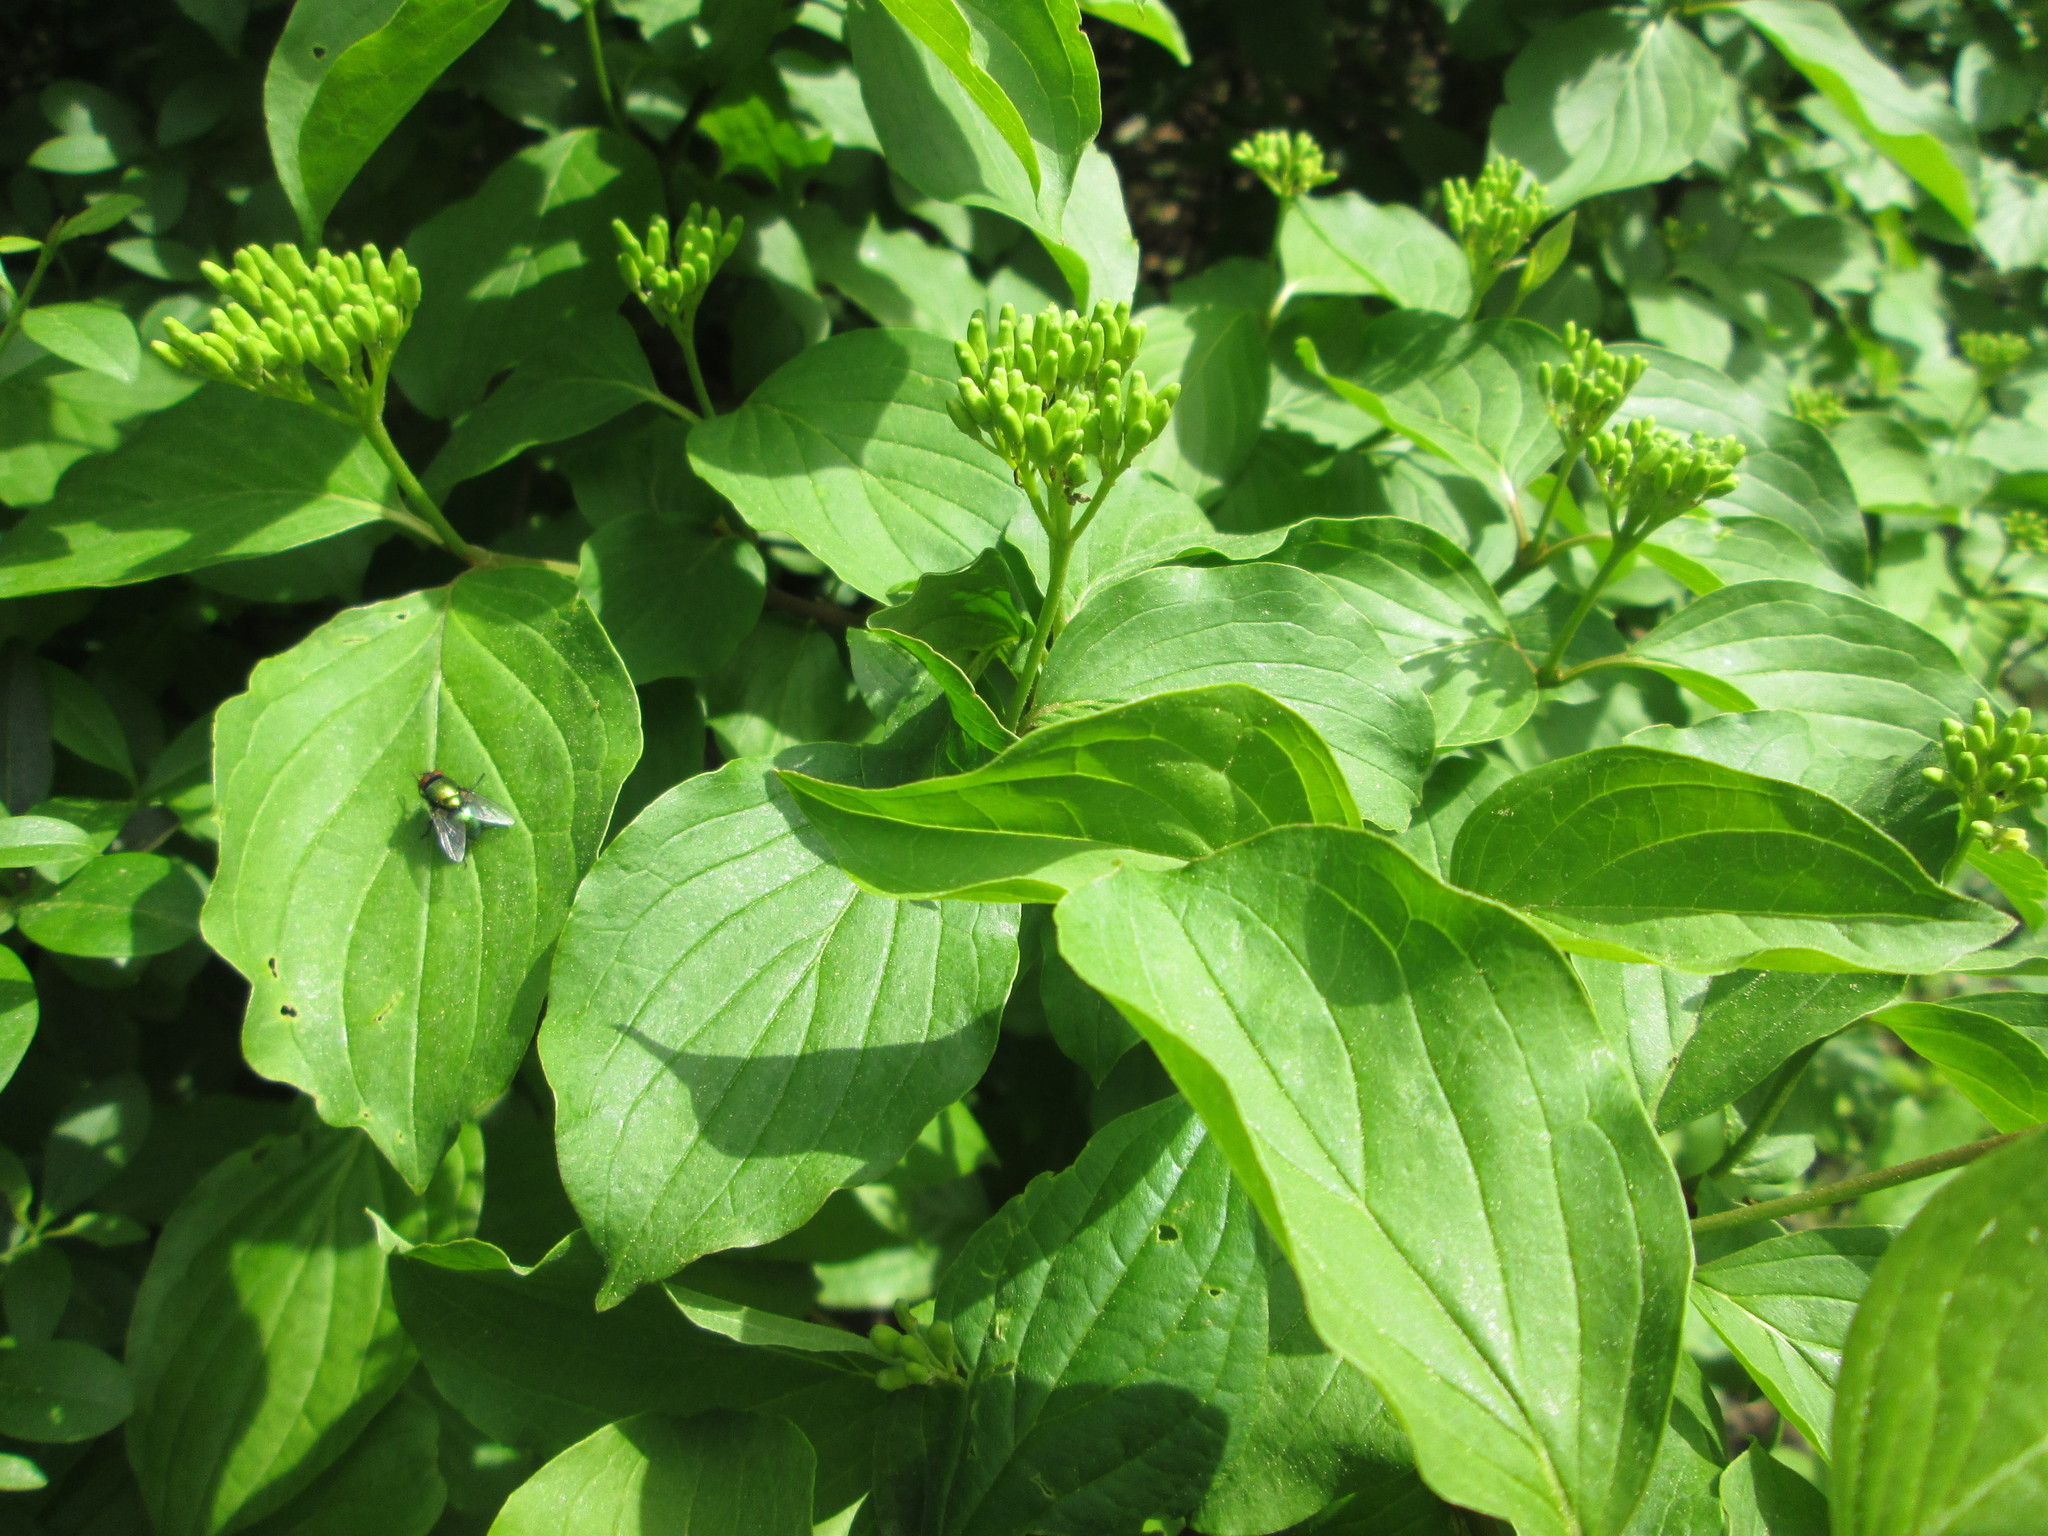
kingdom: Plantae
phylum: Tracheophyta
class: Magnoliopsida
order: Cornales
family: Cornaceae
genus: Cornus
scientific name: Cornus sanguinea
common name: Dogwood
